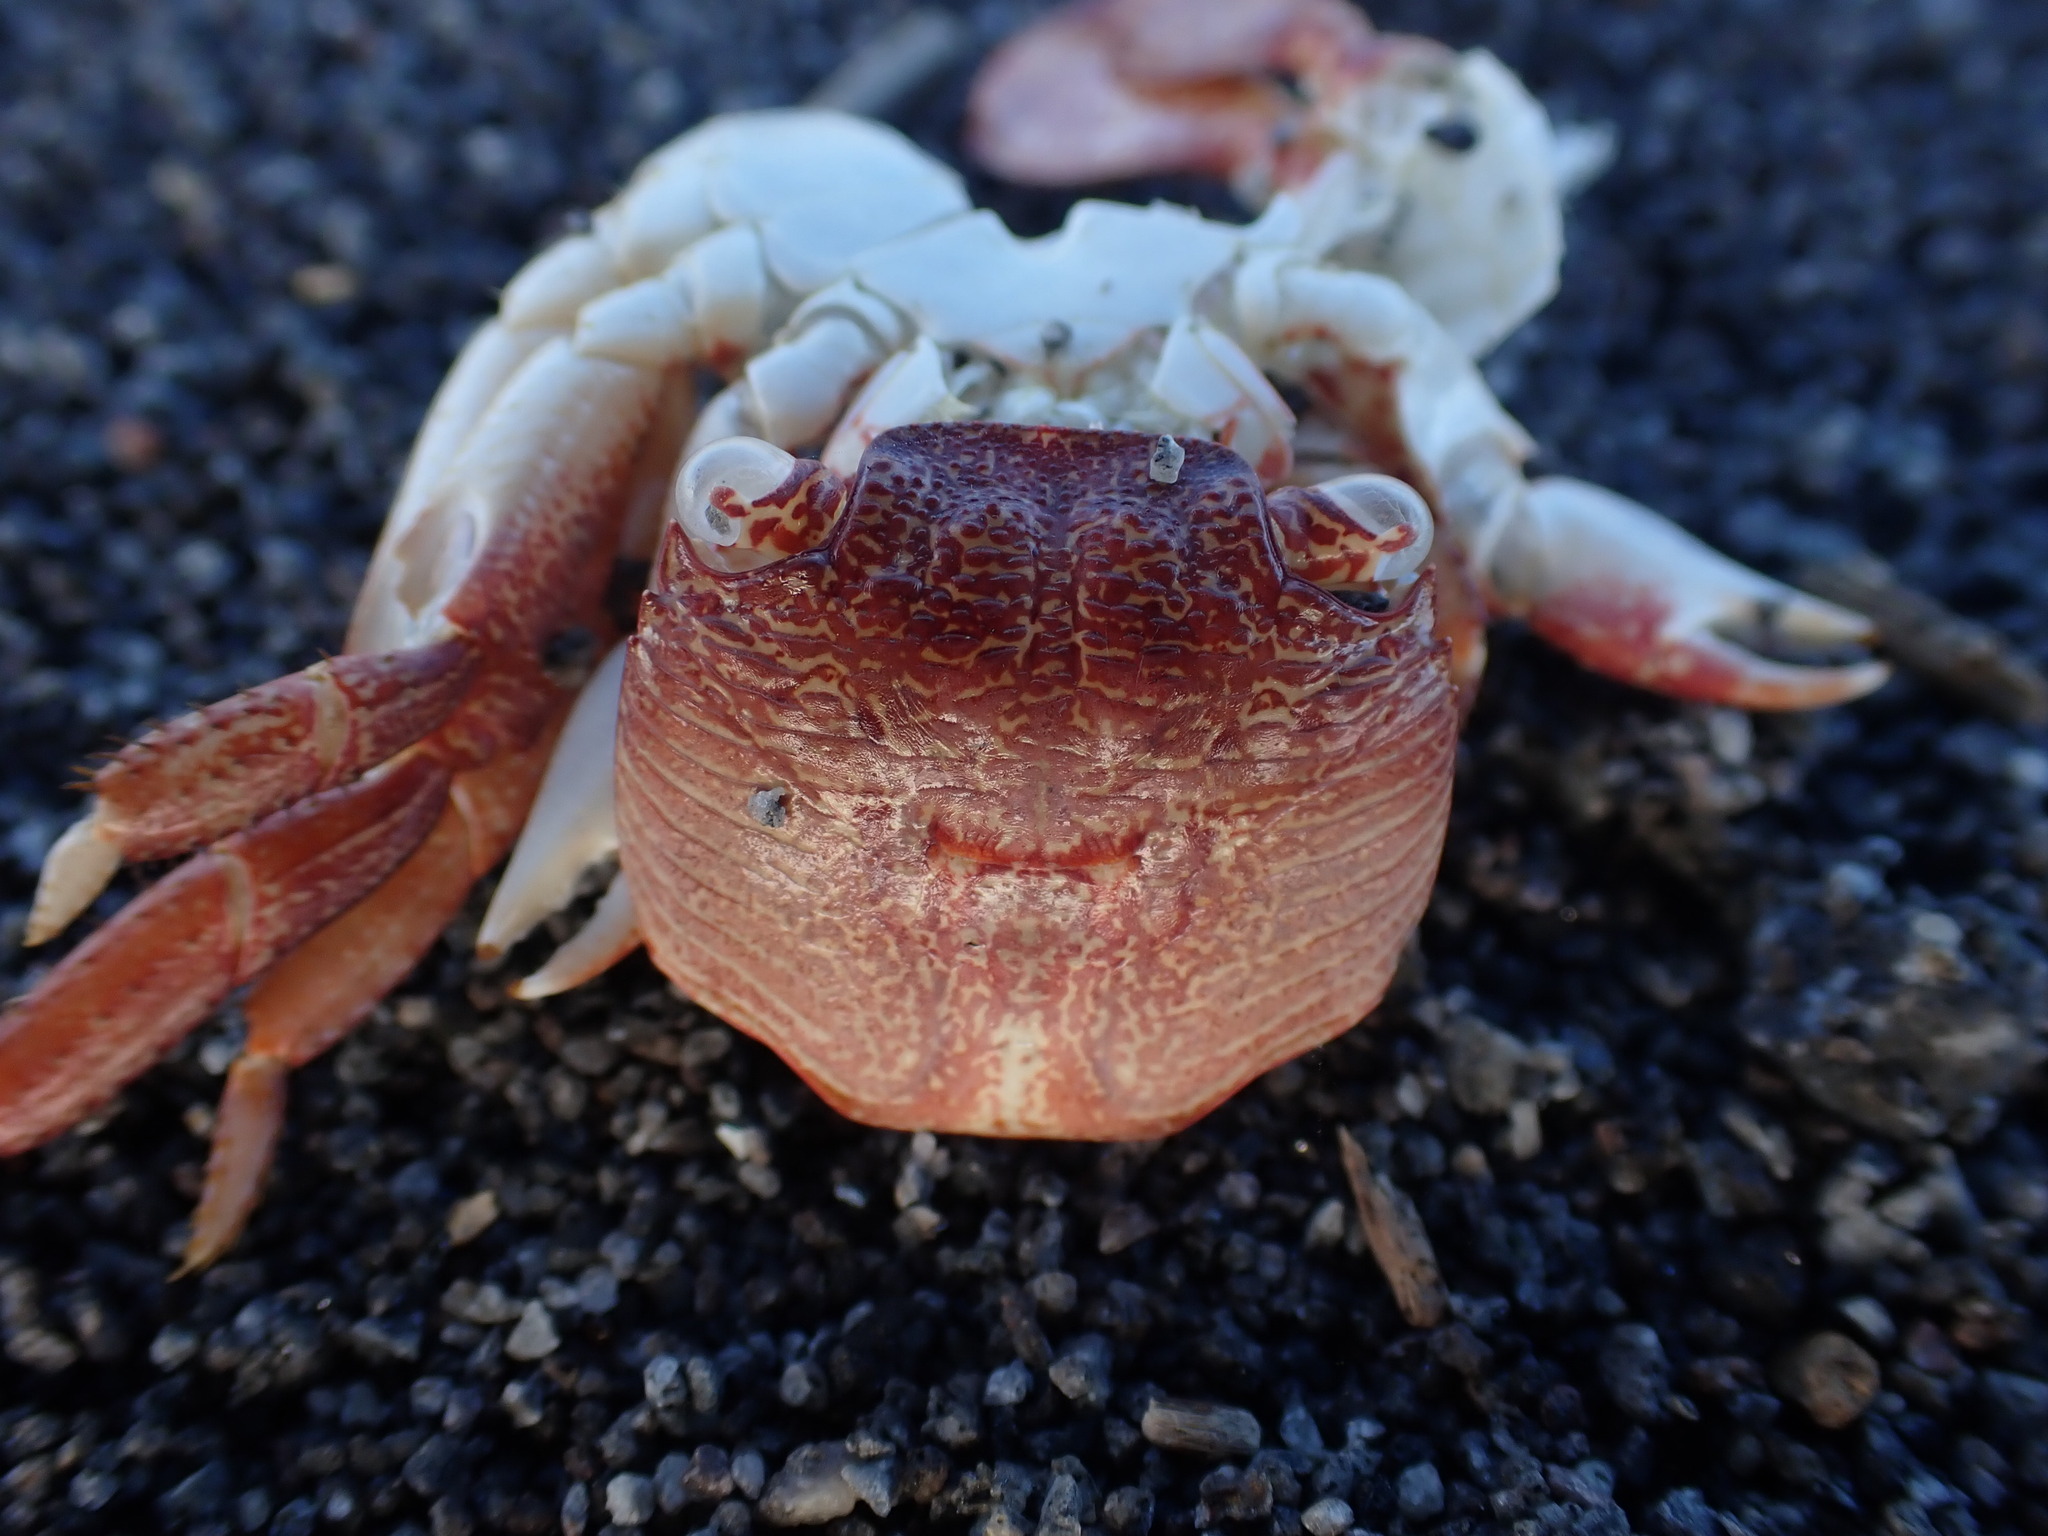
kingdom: Animalia
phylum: Arthropoda
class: Malacostraca
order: Decapoda
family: Grapsidae
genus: Leptograpsus
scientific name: Leptograpsus variegatus
